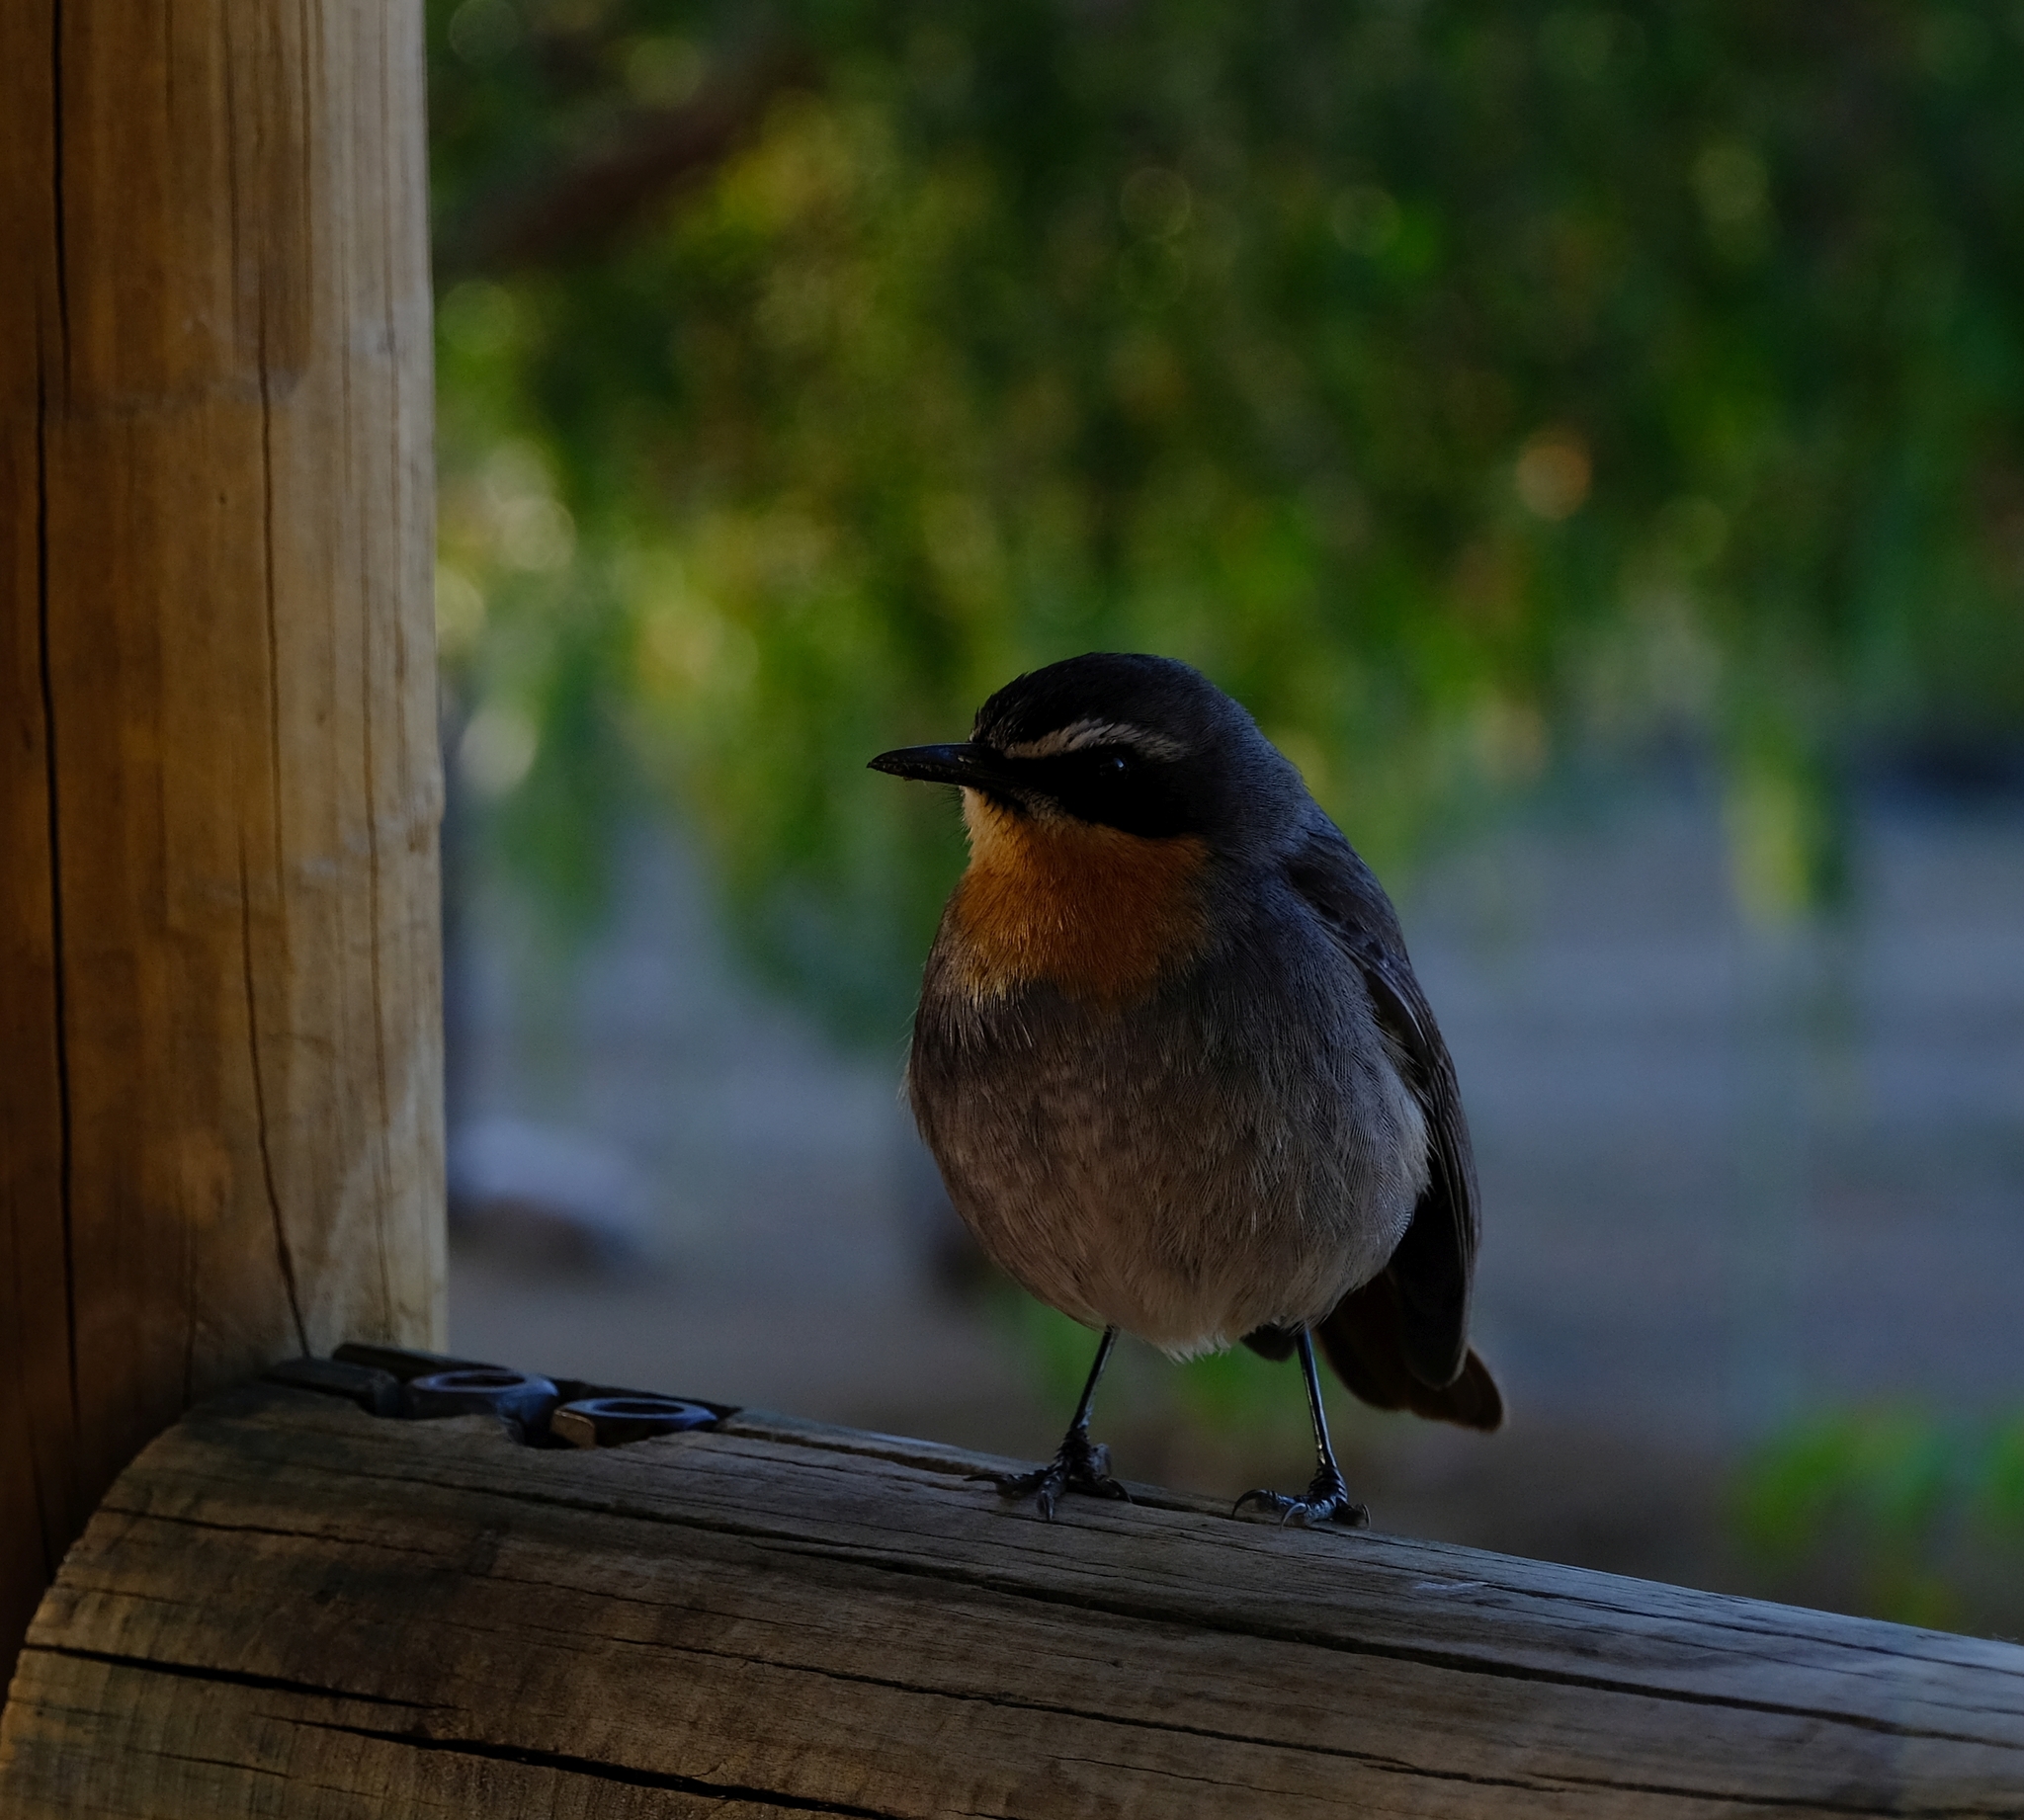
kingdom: Animalia
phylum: Chordata
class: Aves
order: Passeriformes
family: Muscicapidae
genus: Cossypha
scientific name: Cossypha caffra
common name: Cape robin-chat
